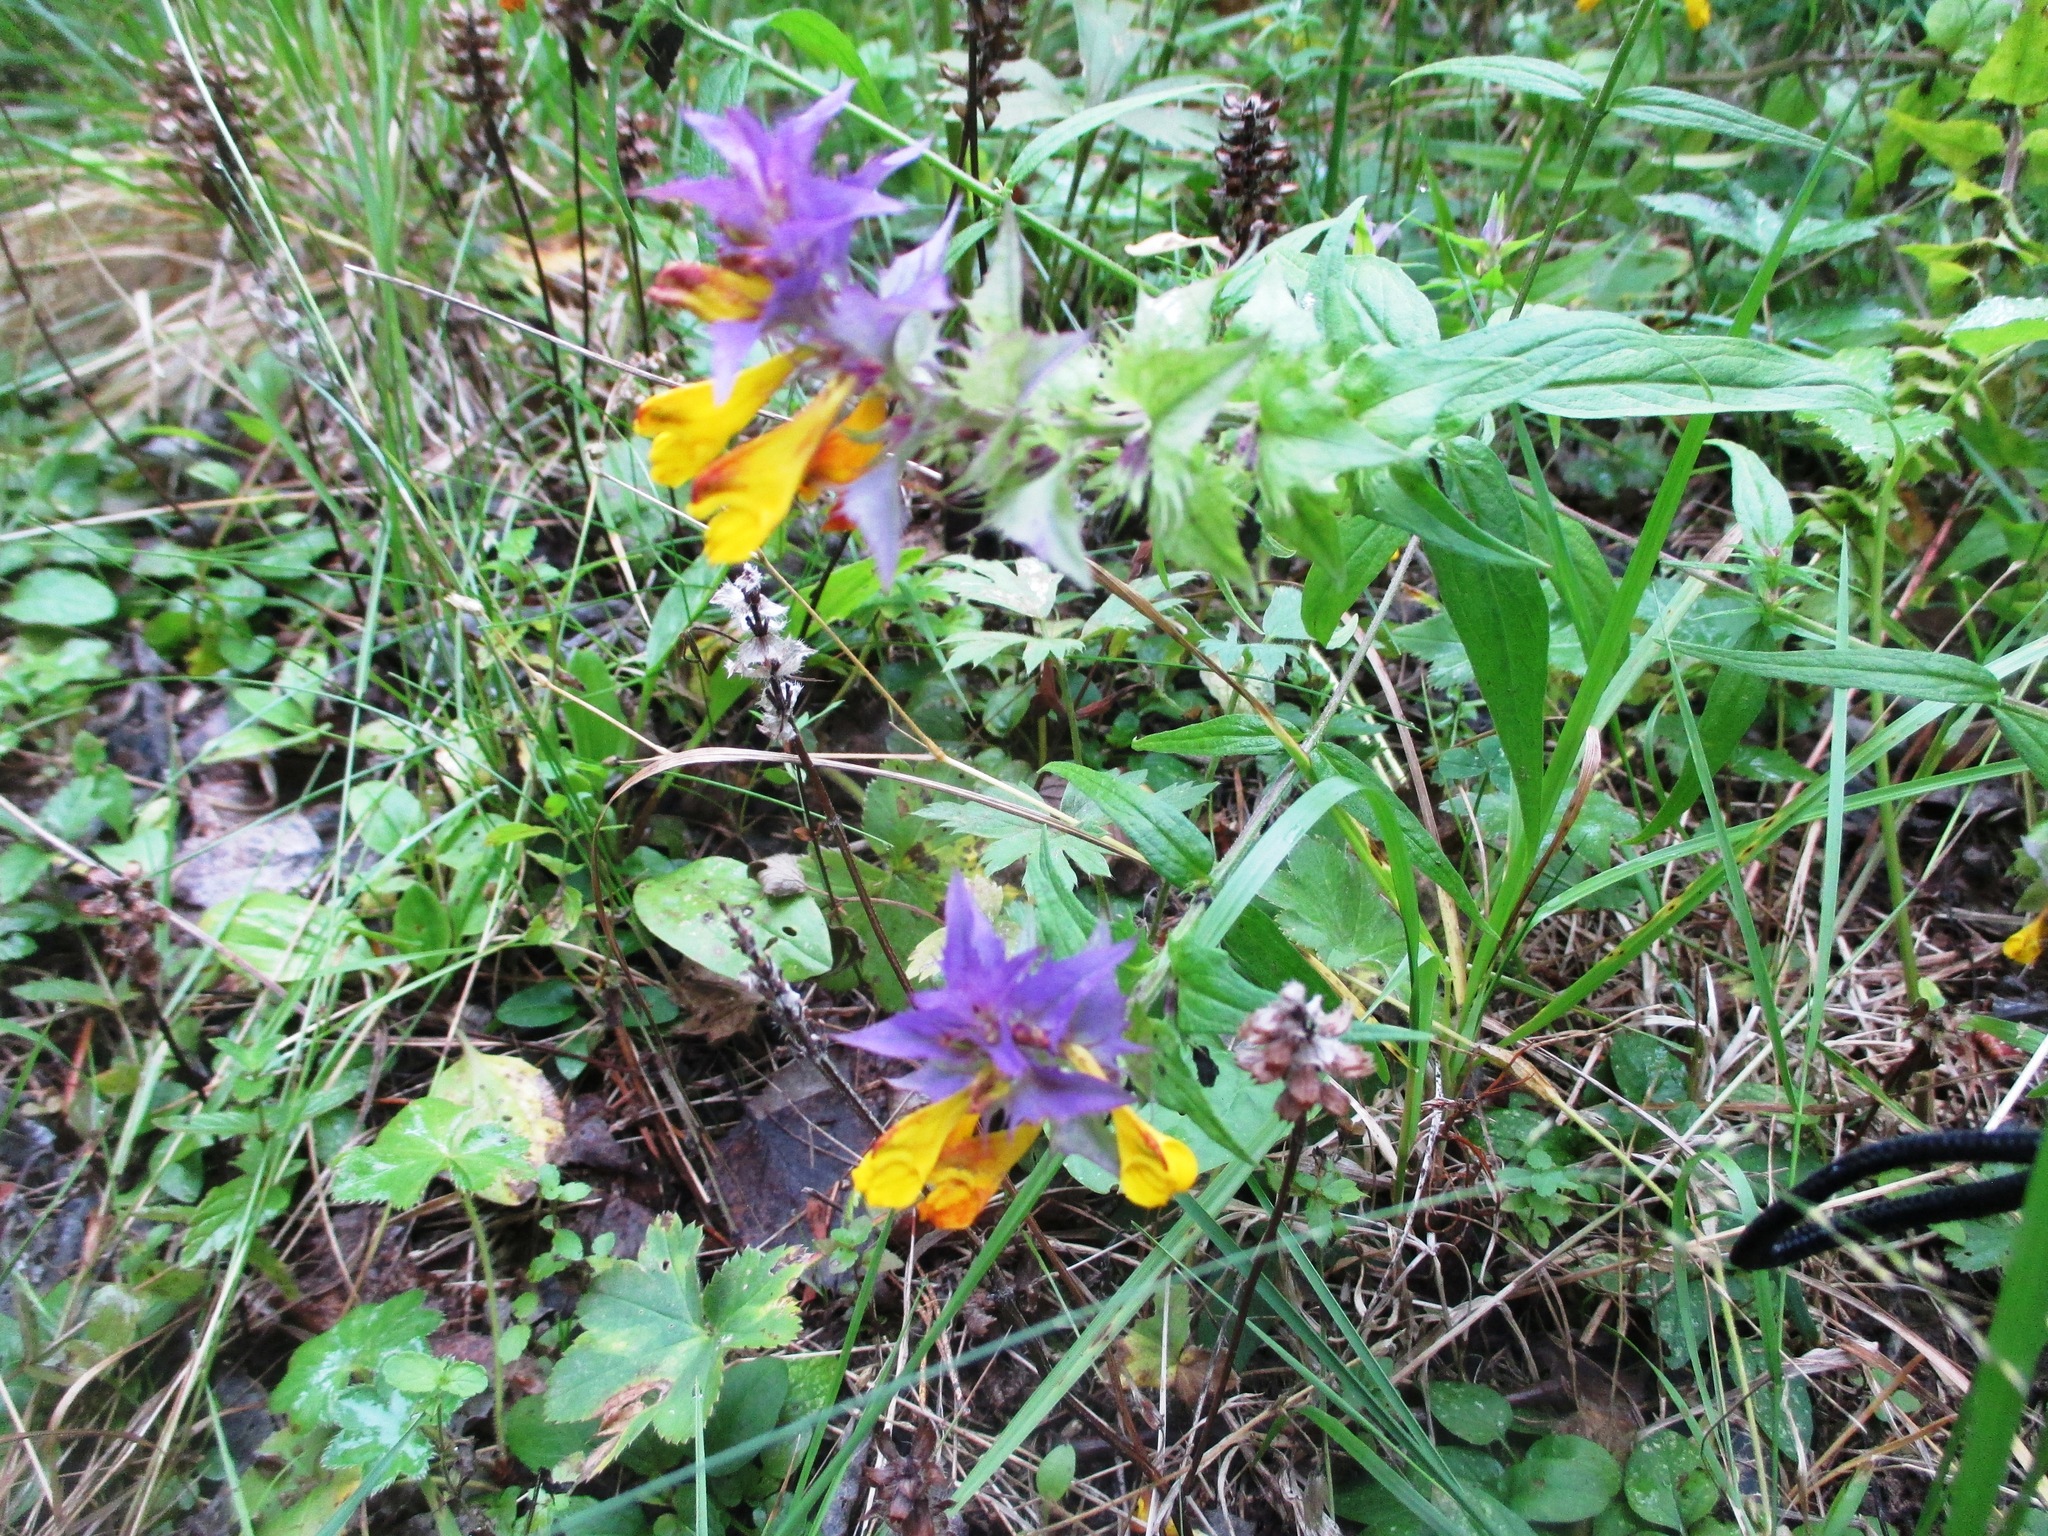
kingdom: Plantae
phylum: Tracheophyta
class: Magnoliopsida
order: Lamiales
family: Orobanchaceae
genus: Melampyrum
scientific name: Melampyrum nemorosum
